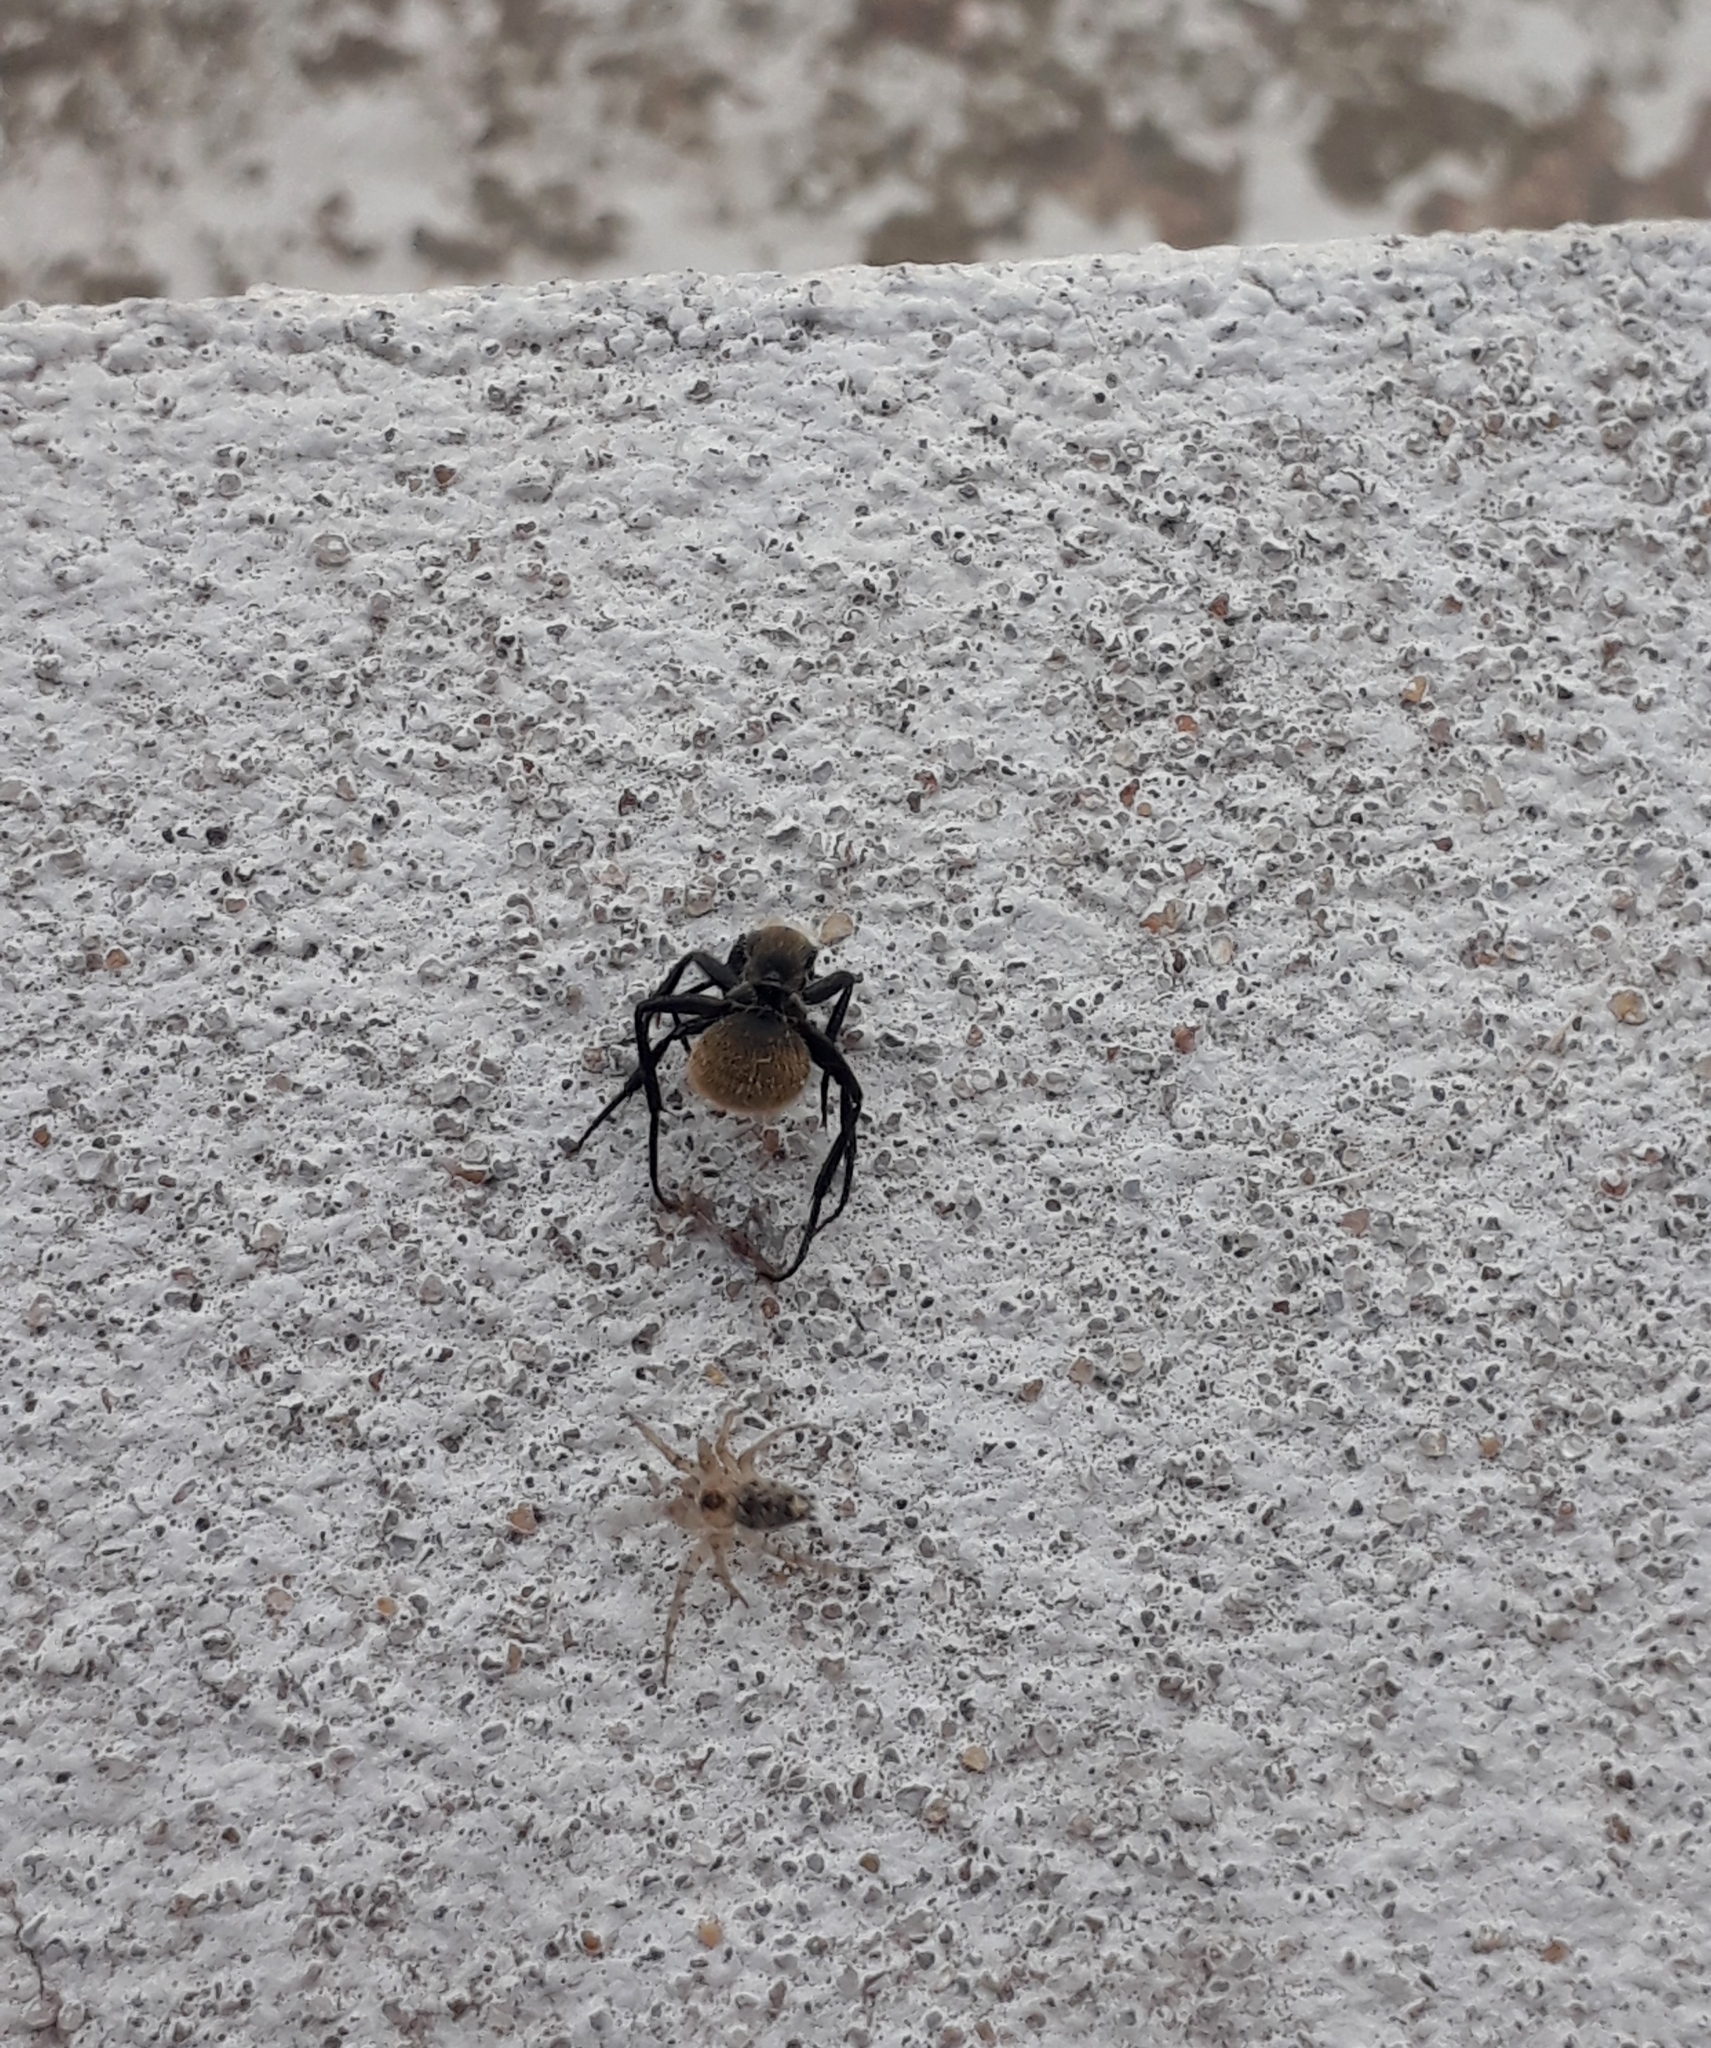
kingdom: Animalia
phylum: Arthropoda
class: Arachnida
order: Araneae
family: Oecobiidae
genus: Oecobius
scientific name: Oecobius navus
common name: Flatmesh weaver
